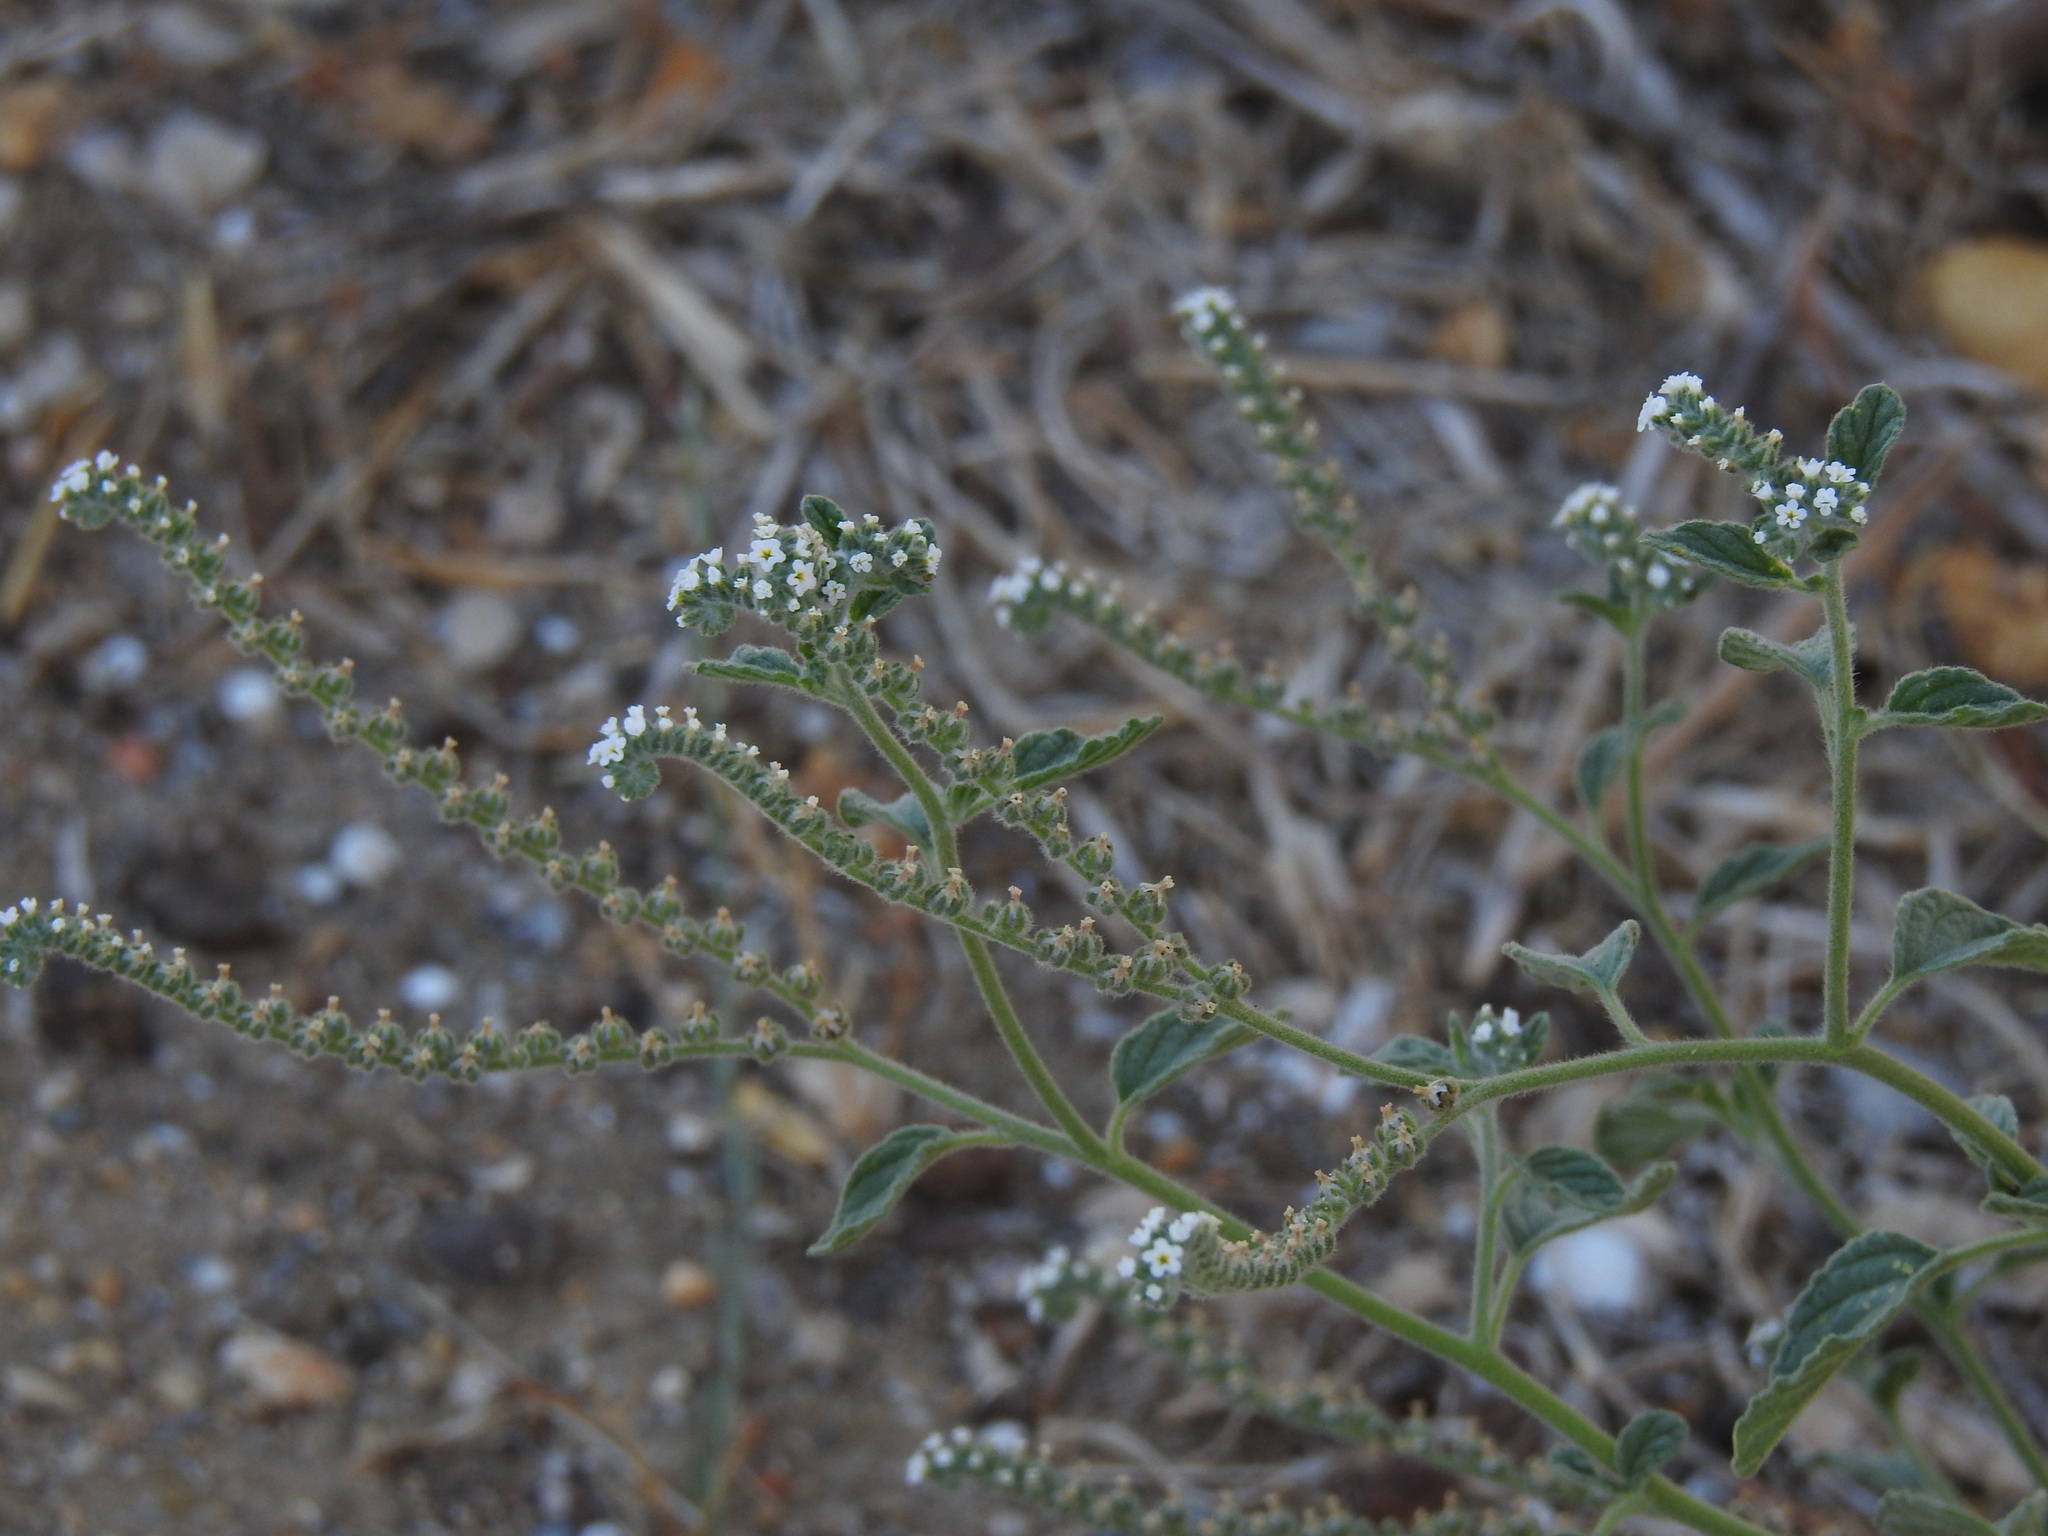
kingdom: Plantae
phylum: Tracheophyta
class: Magnoliopsida
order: Boraginales
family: Heliotropiaceae
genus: Heliotropium
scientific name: Heliotropium europaeum
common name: European heliotrope
